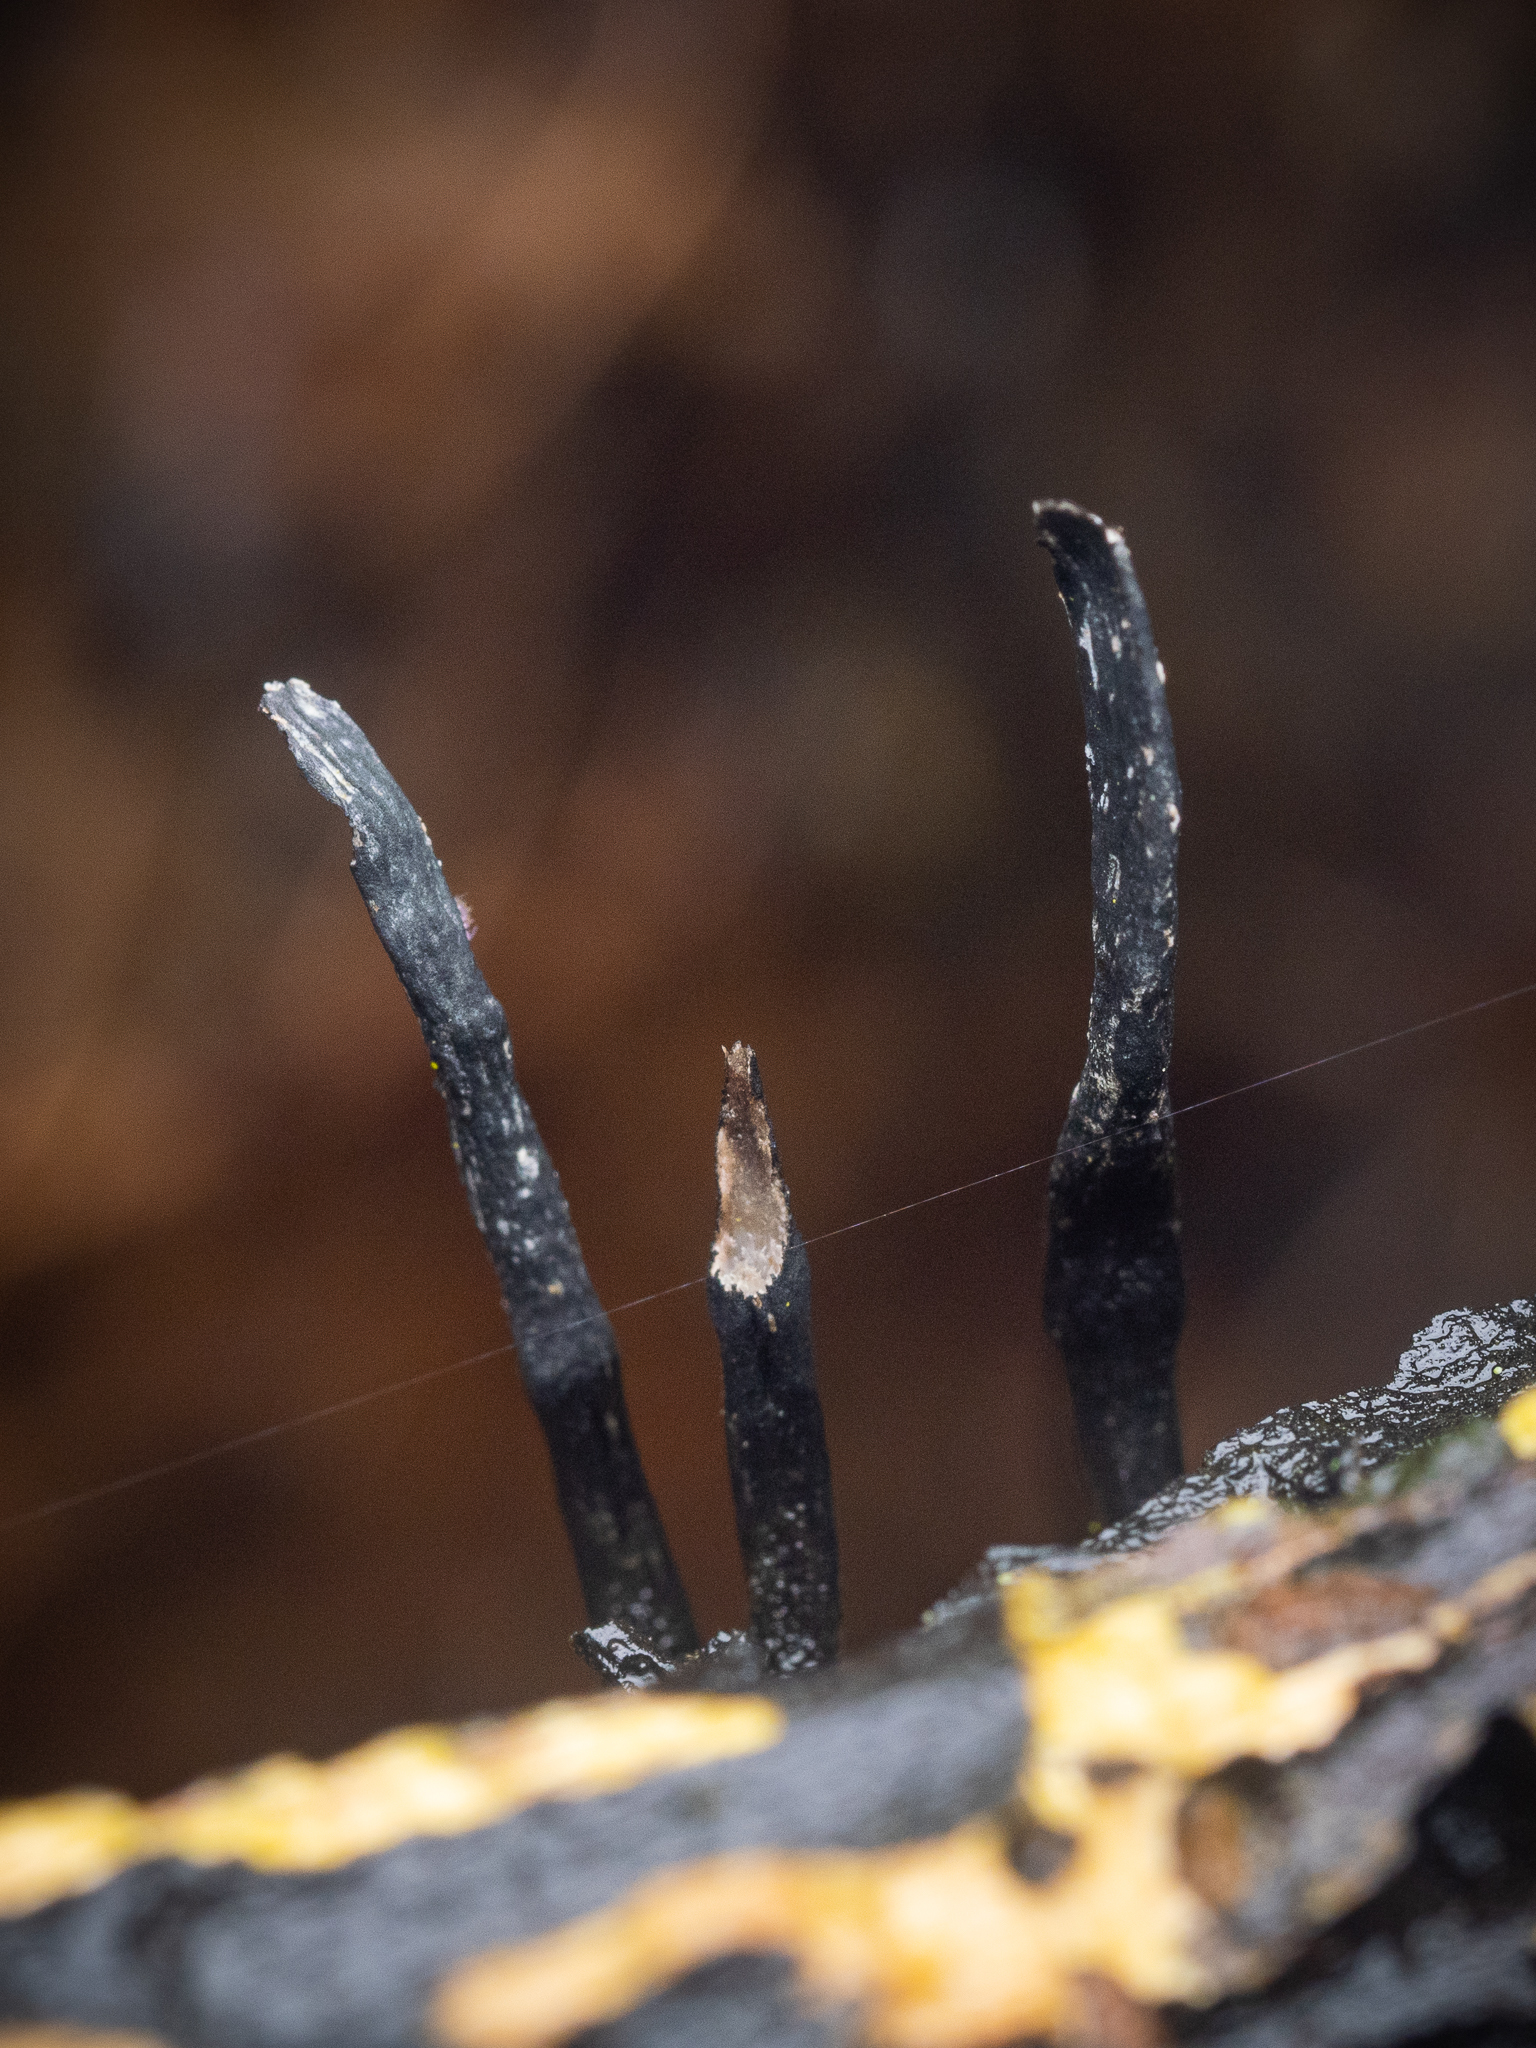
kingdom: Fungi
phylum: Ascomycota
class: Sordariomycetes
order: Xylariales
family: Xylariaceae
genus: Xylaria
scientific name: Xylaria hypoxylon
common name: Candle-snuff fungus
